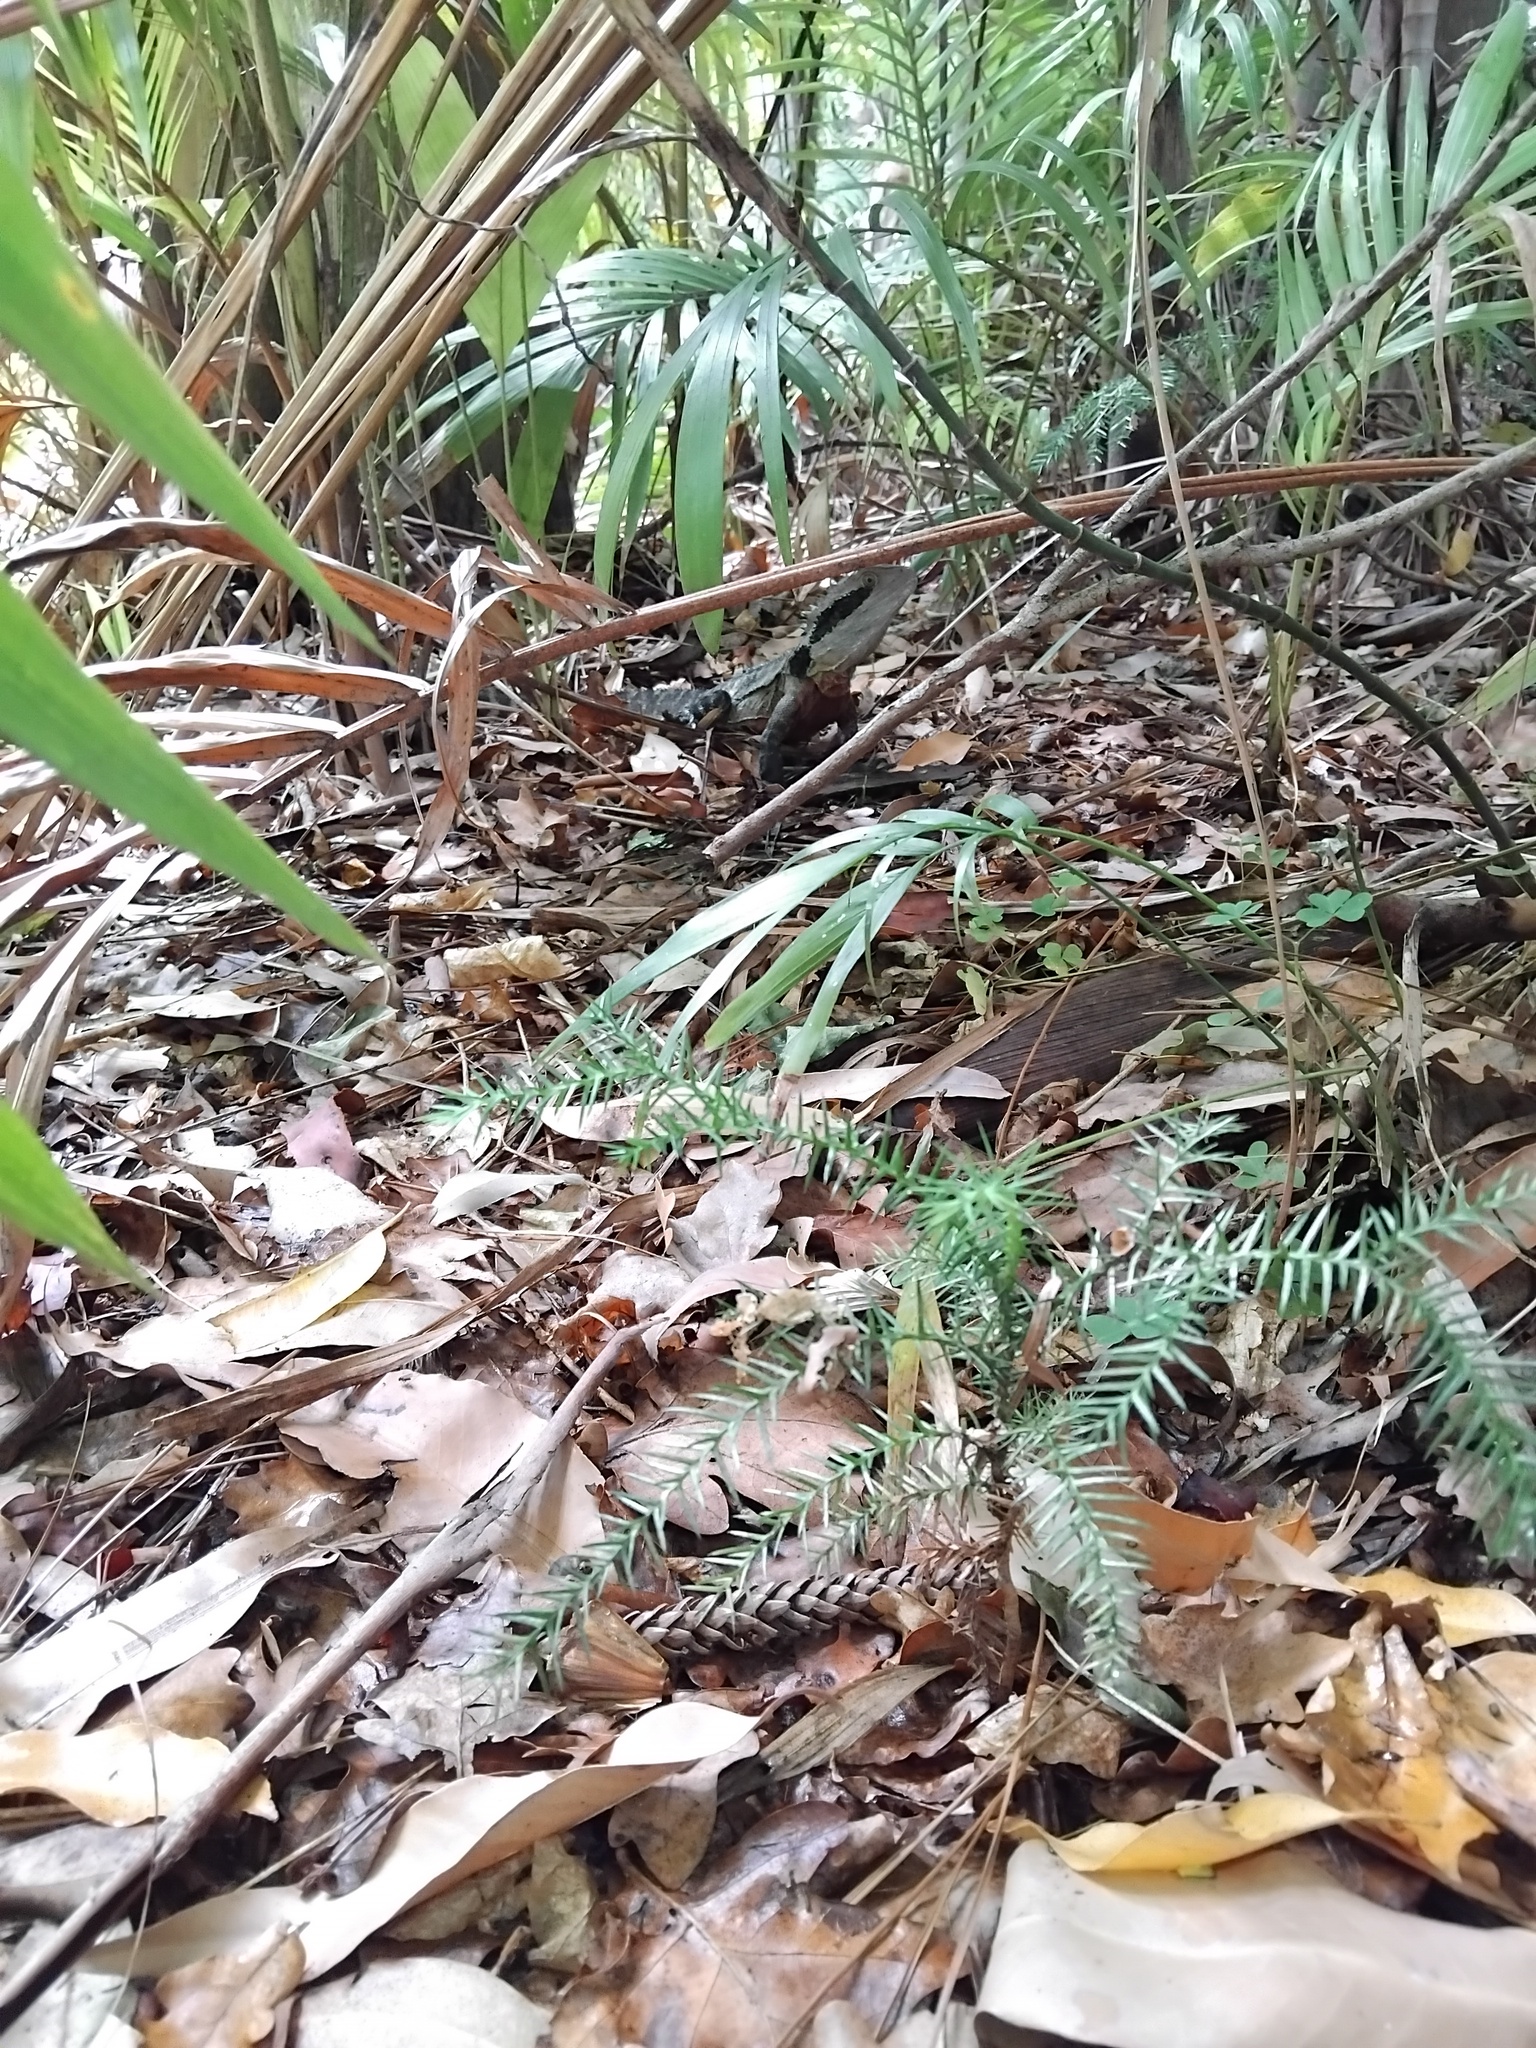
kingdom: Animalia
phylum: Chordata
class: Squamata
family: Agamidae
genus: Intellagama
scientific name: Intellagama lesueurii
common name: Eastern water dragon
